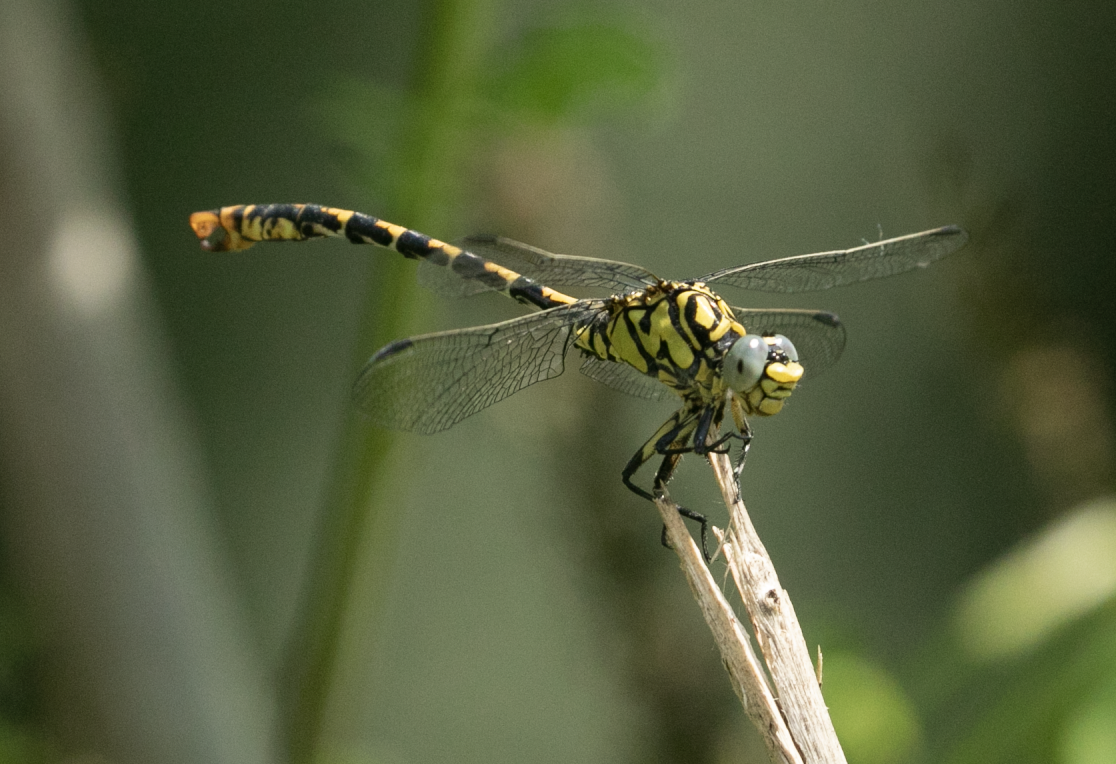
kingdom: Animalia
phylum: Arthropoda
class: Insecta
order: Odonata
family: Gomphidae
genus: Onychogomphus
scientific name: Onychogomphus forcipatus
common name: Small pincertail
